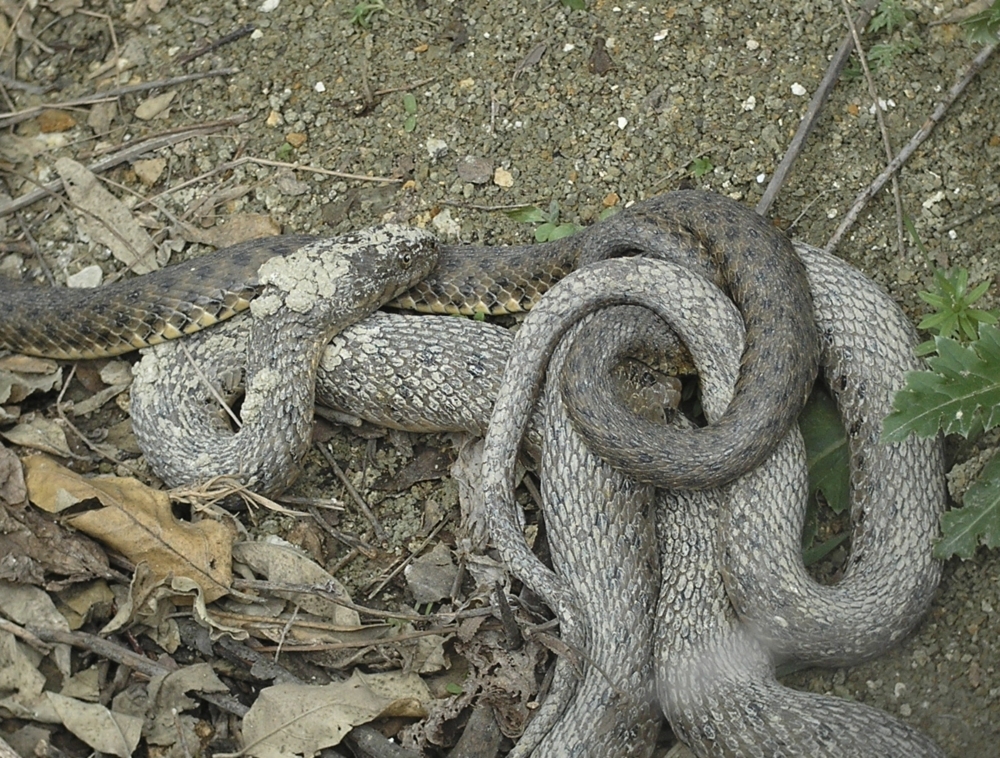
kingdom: Animalia
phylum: Chordata
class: Squamata
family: Colubridae
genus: Natrix
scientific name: Natrix tessellata
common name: Dice snake
